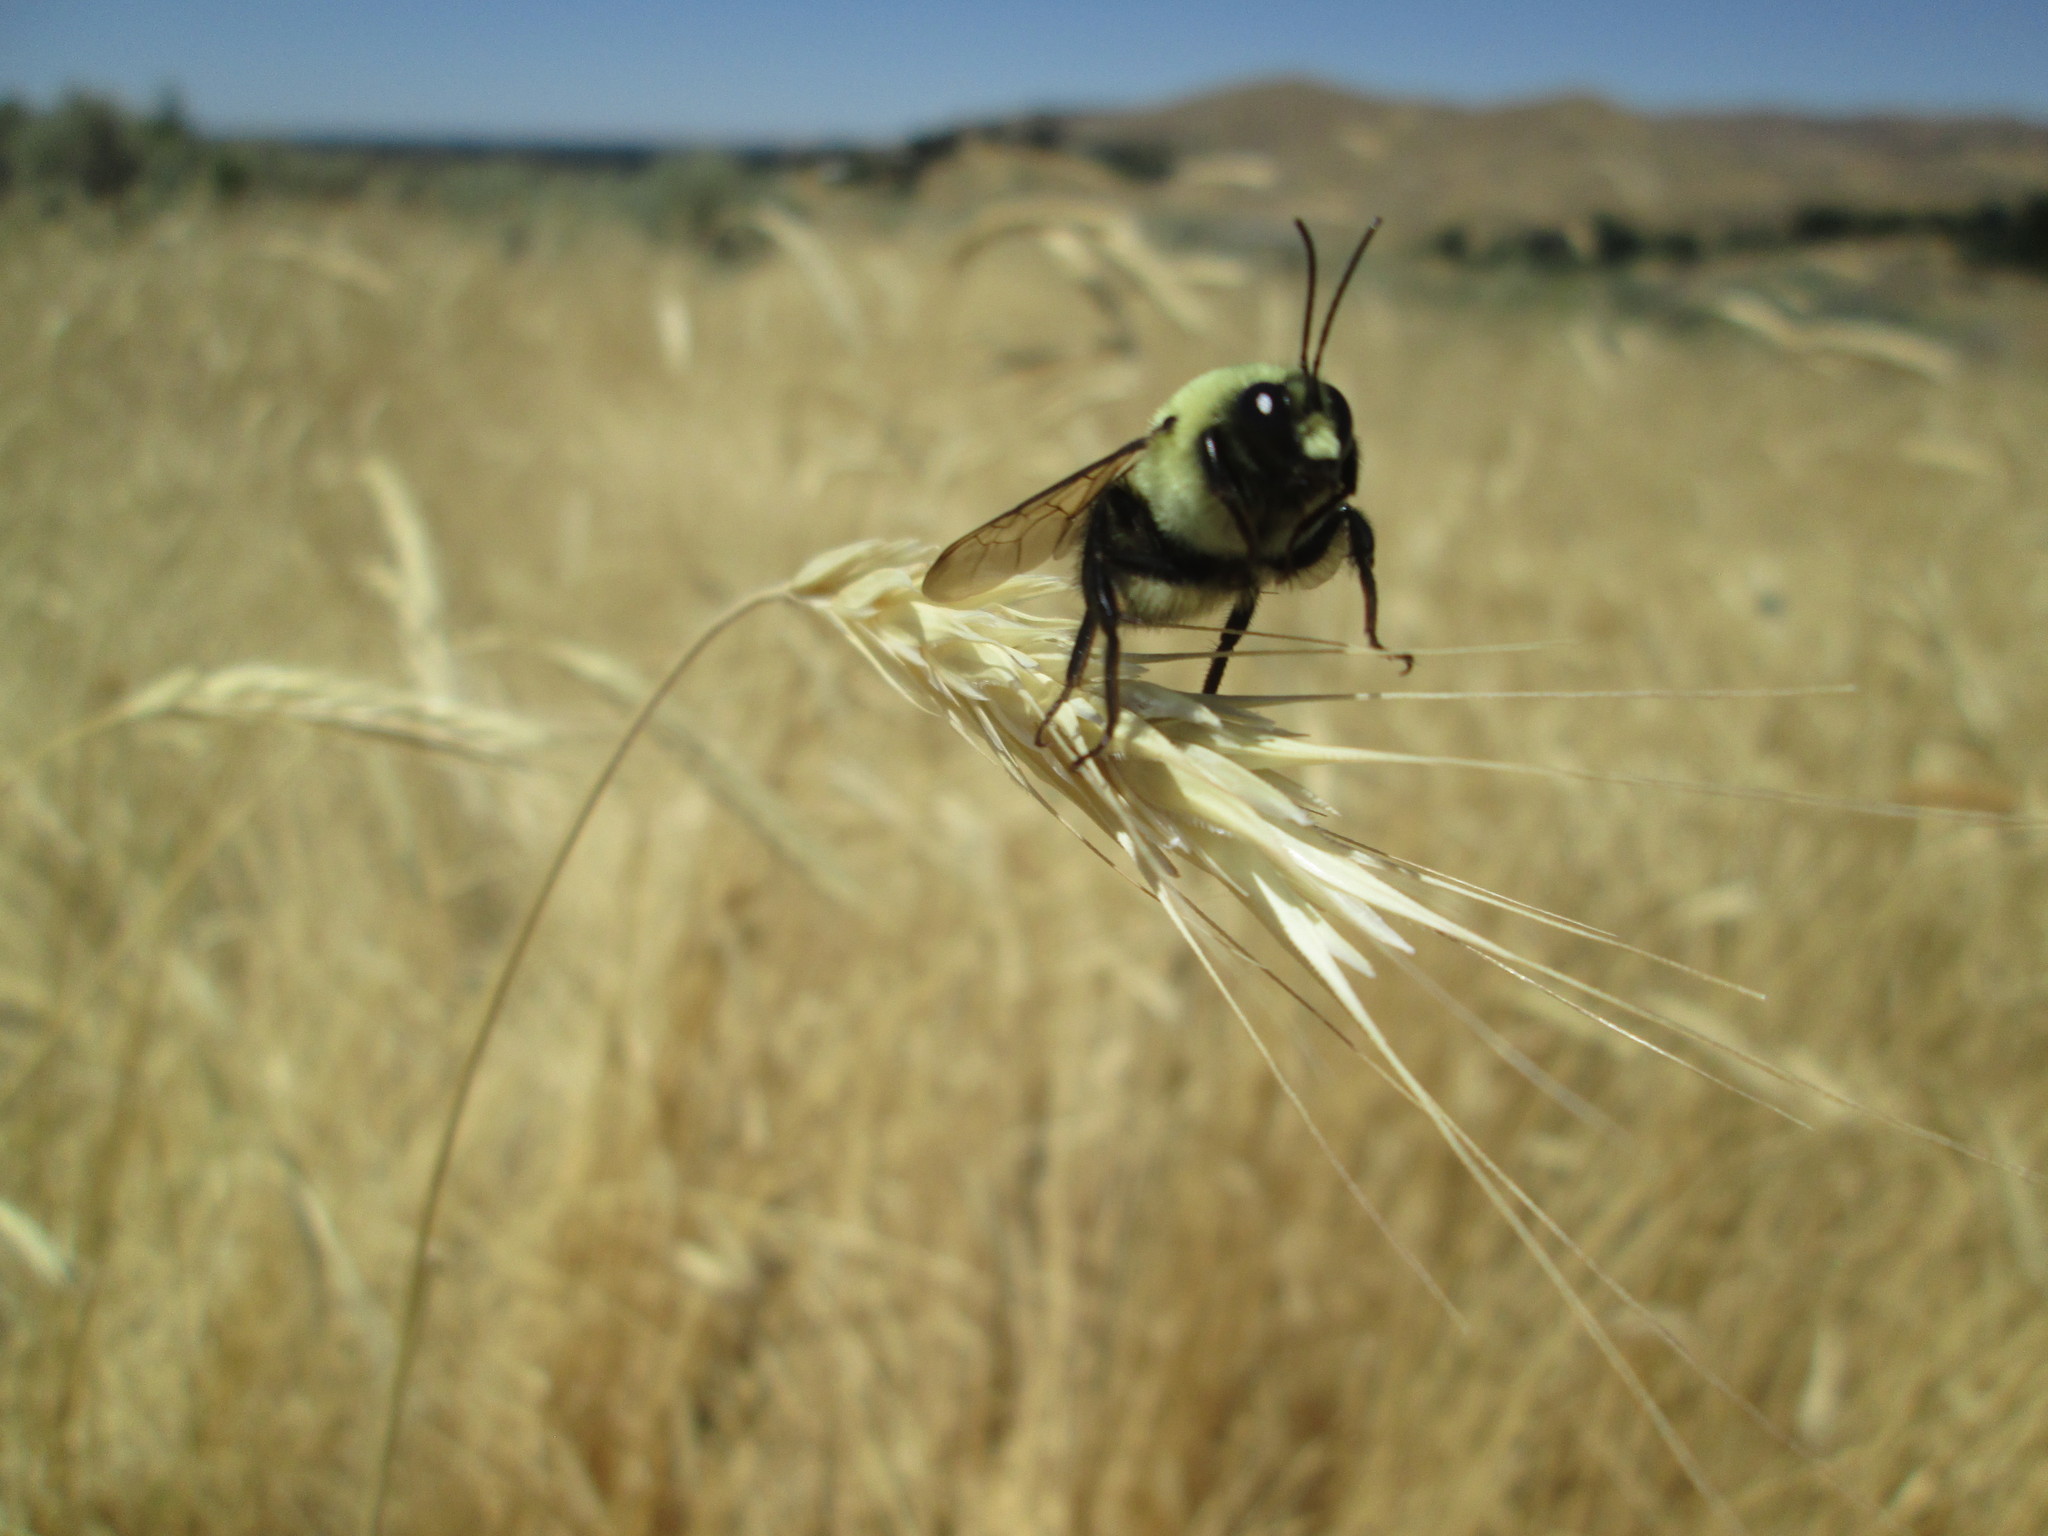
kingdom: Animalia
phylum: Arthropoda
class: Insecta
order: Hymenoptera
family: Apidae
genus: Bombus
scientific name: Bombus griseocollis
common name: Brown-belted bumble bee
